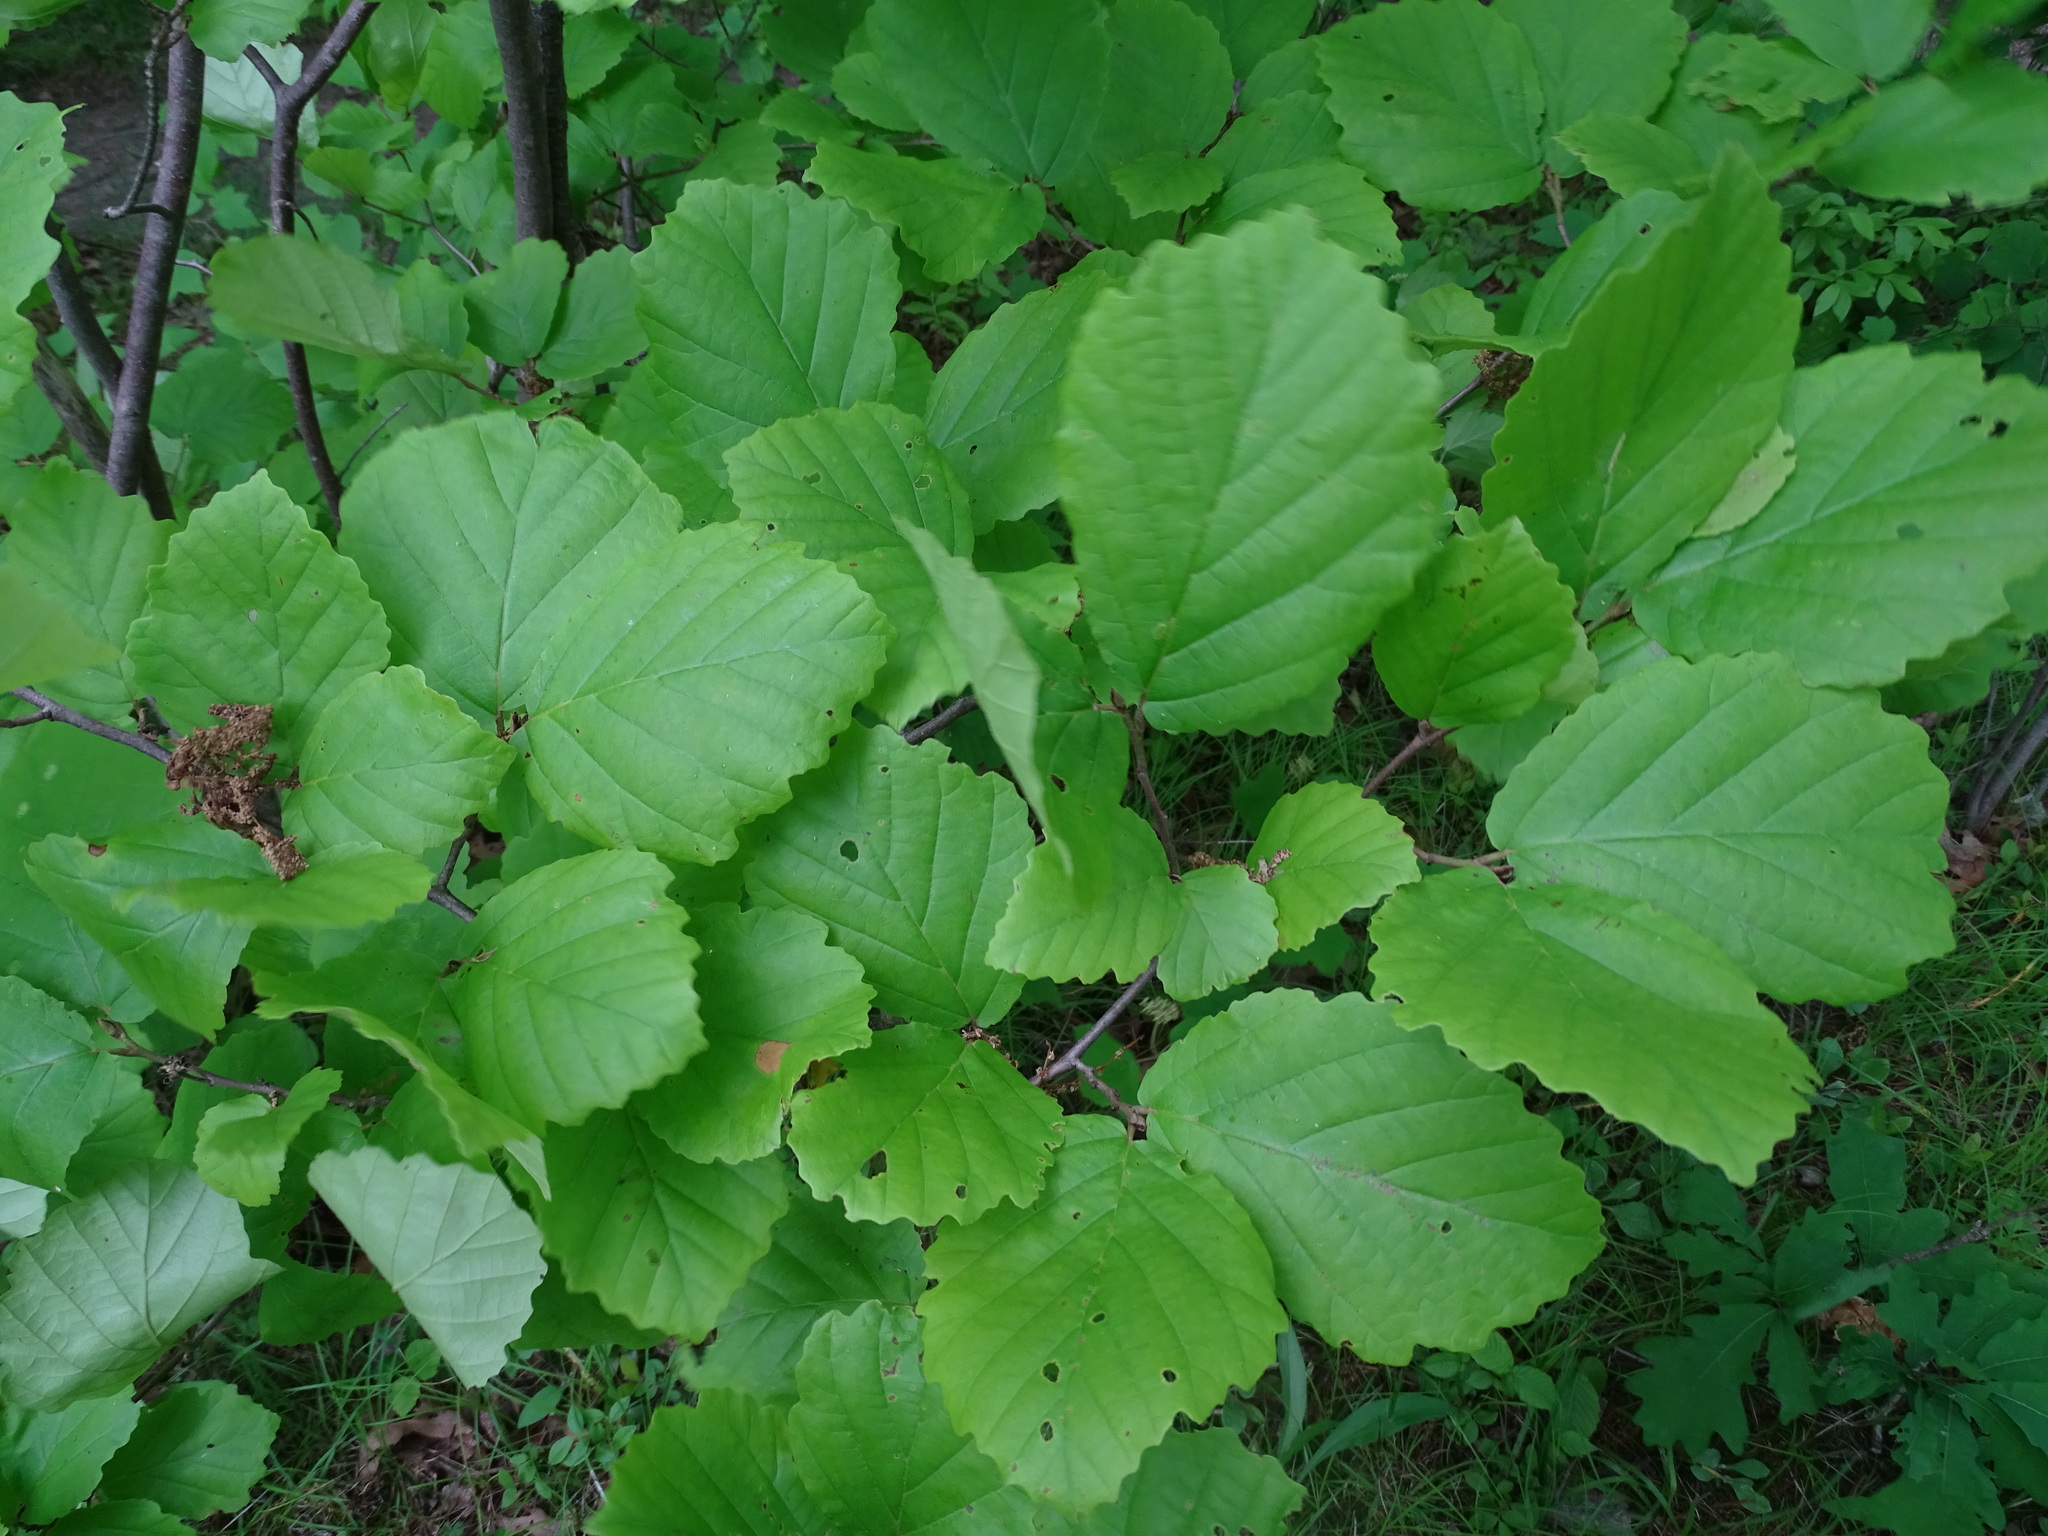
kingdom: Plantae
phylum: Tracheophyta
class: Magnoliopsida
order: Saxifragales
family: Hamamelidaceae
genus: Hamamelis
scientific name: Hamamelis virginiana
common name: Witch-hazel
